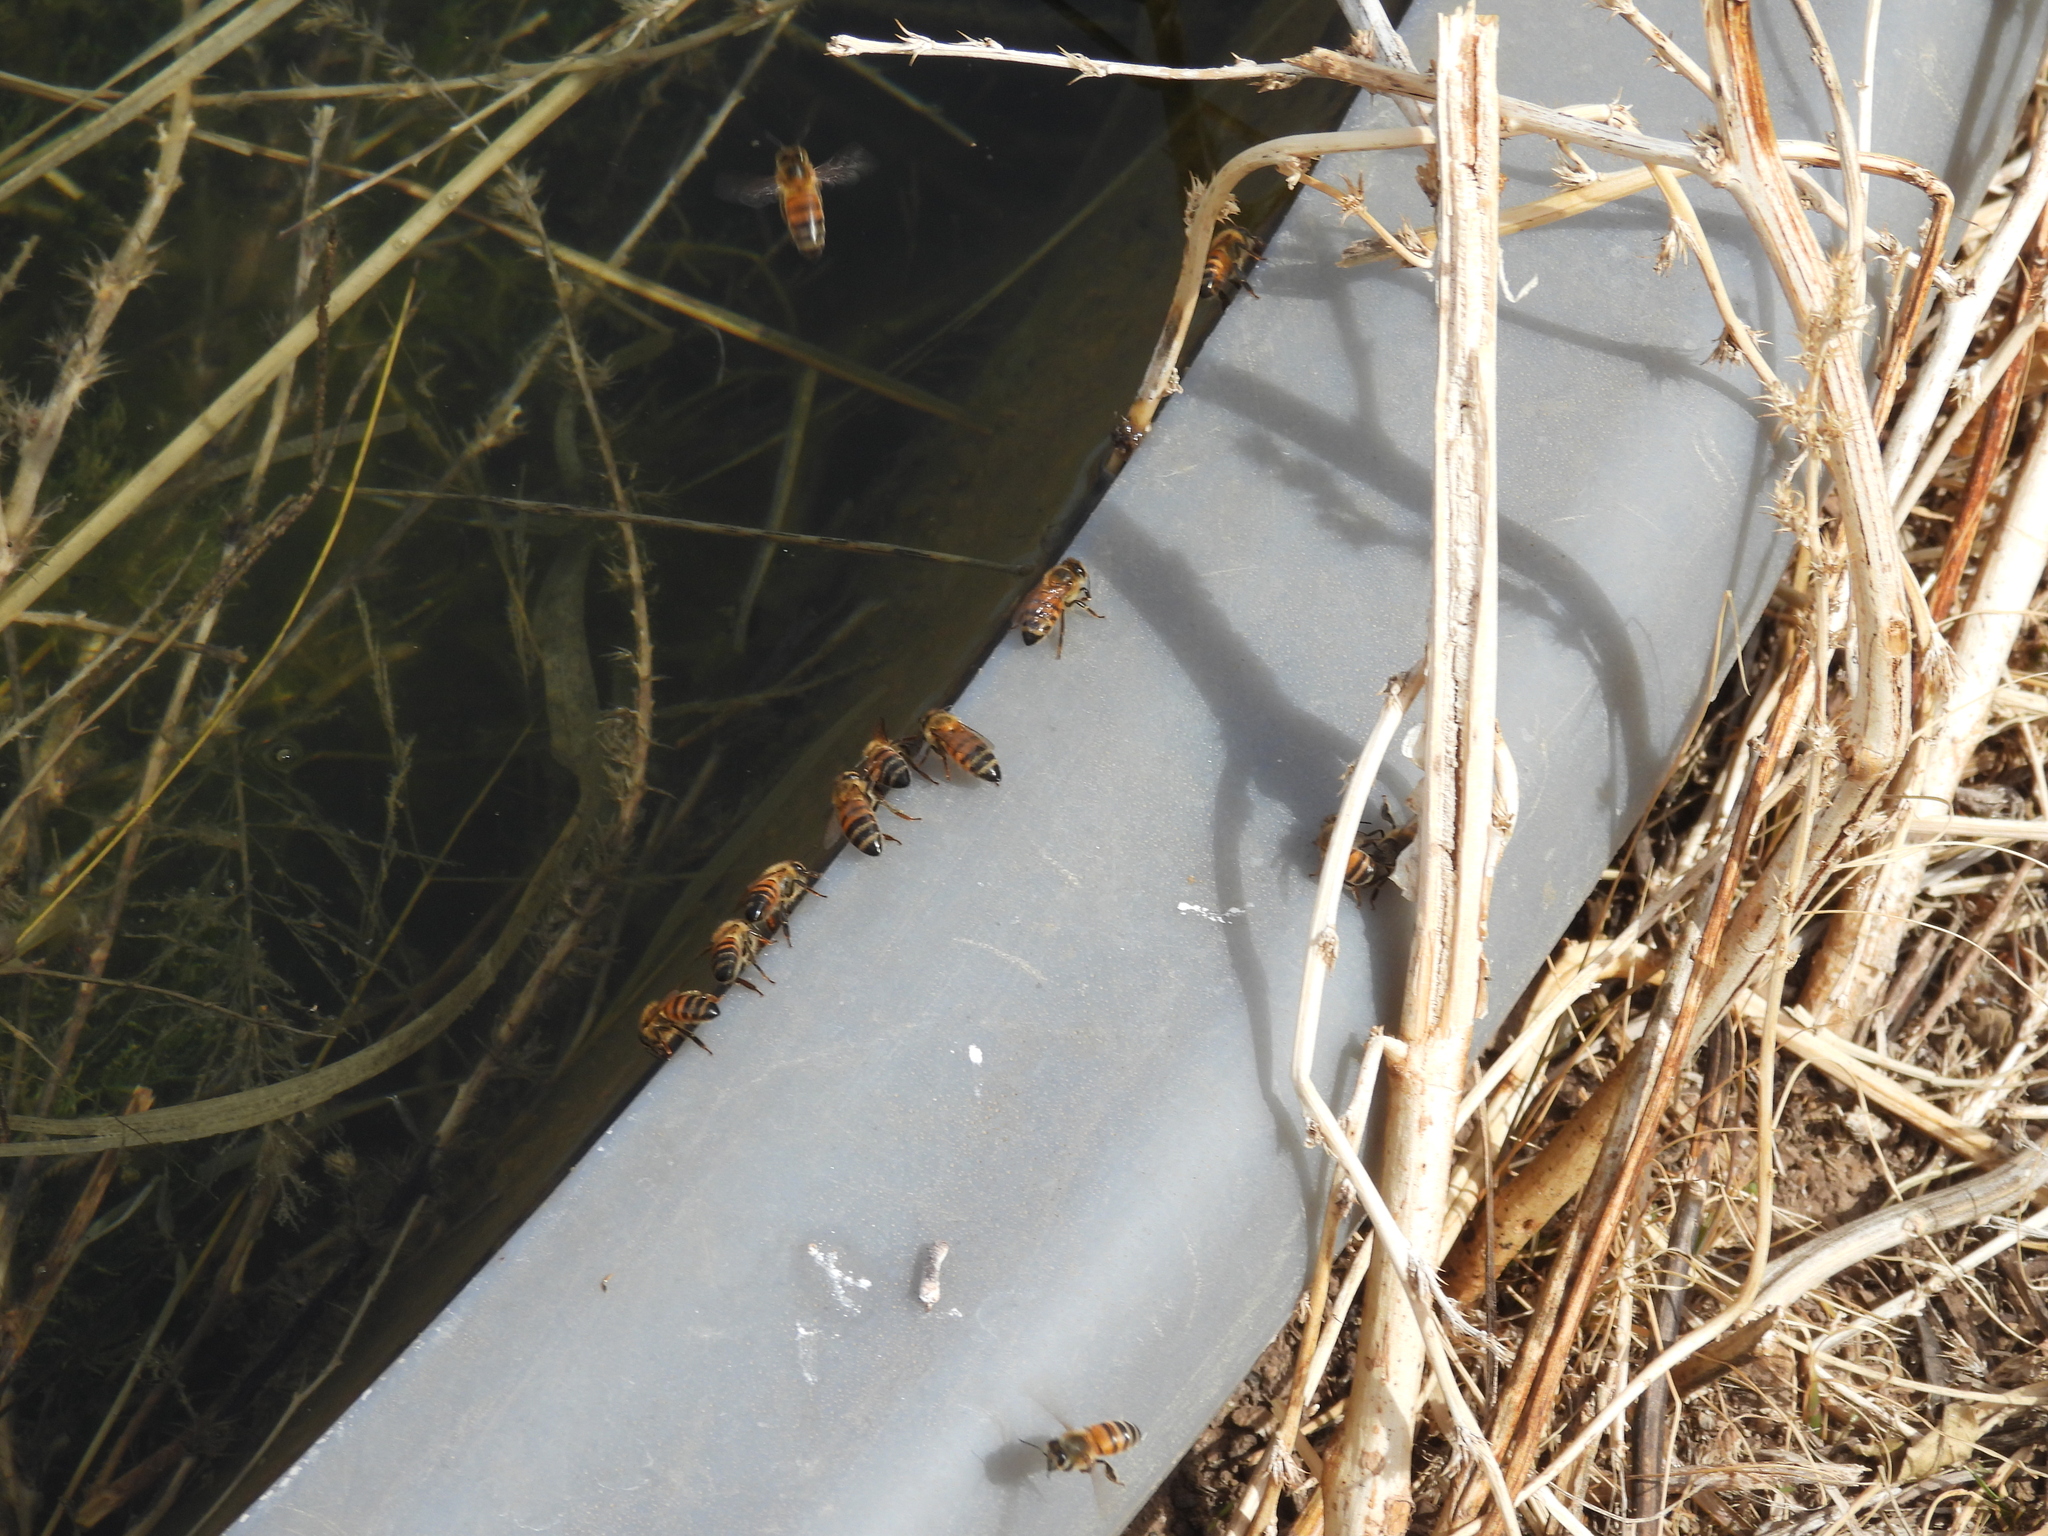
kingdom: Animalia
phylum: Arthropoda
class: Insecta
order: Hymenoptera
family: Apidae
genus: Apis
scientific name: Apis mellifera
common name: Honey bee
